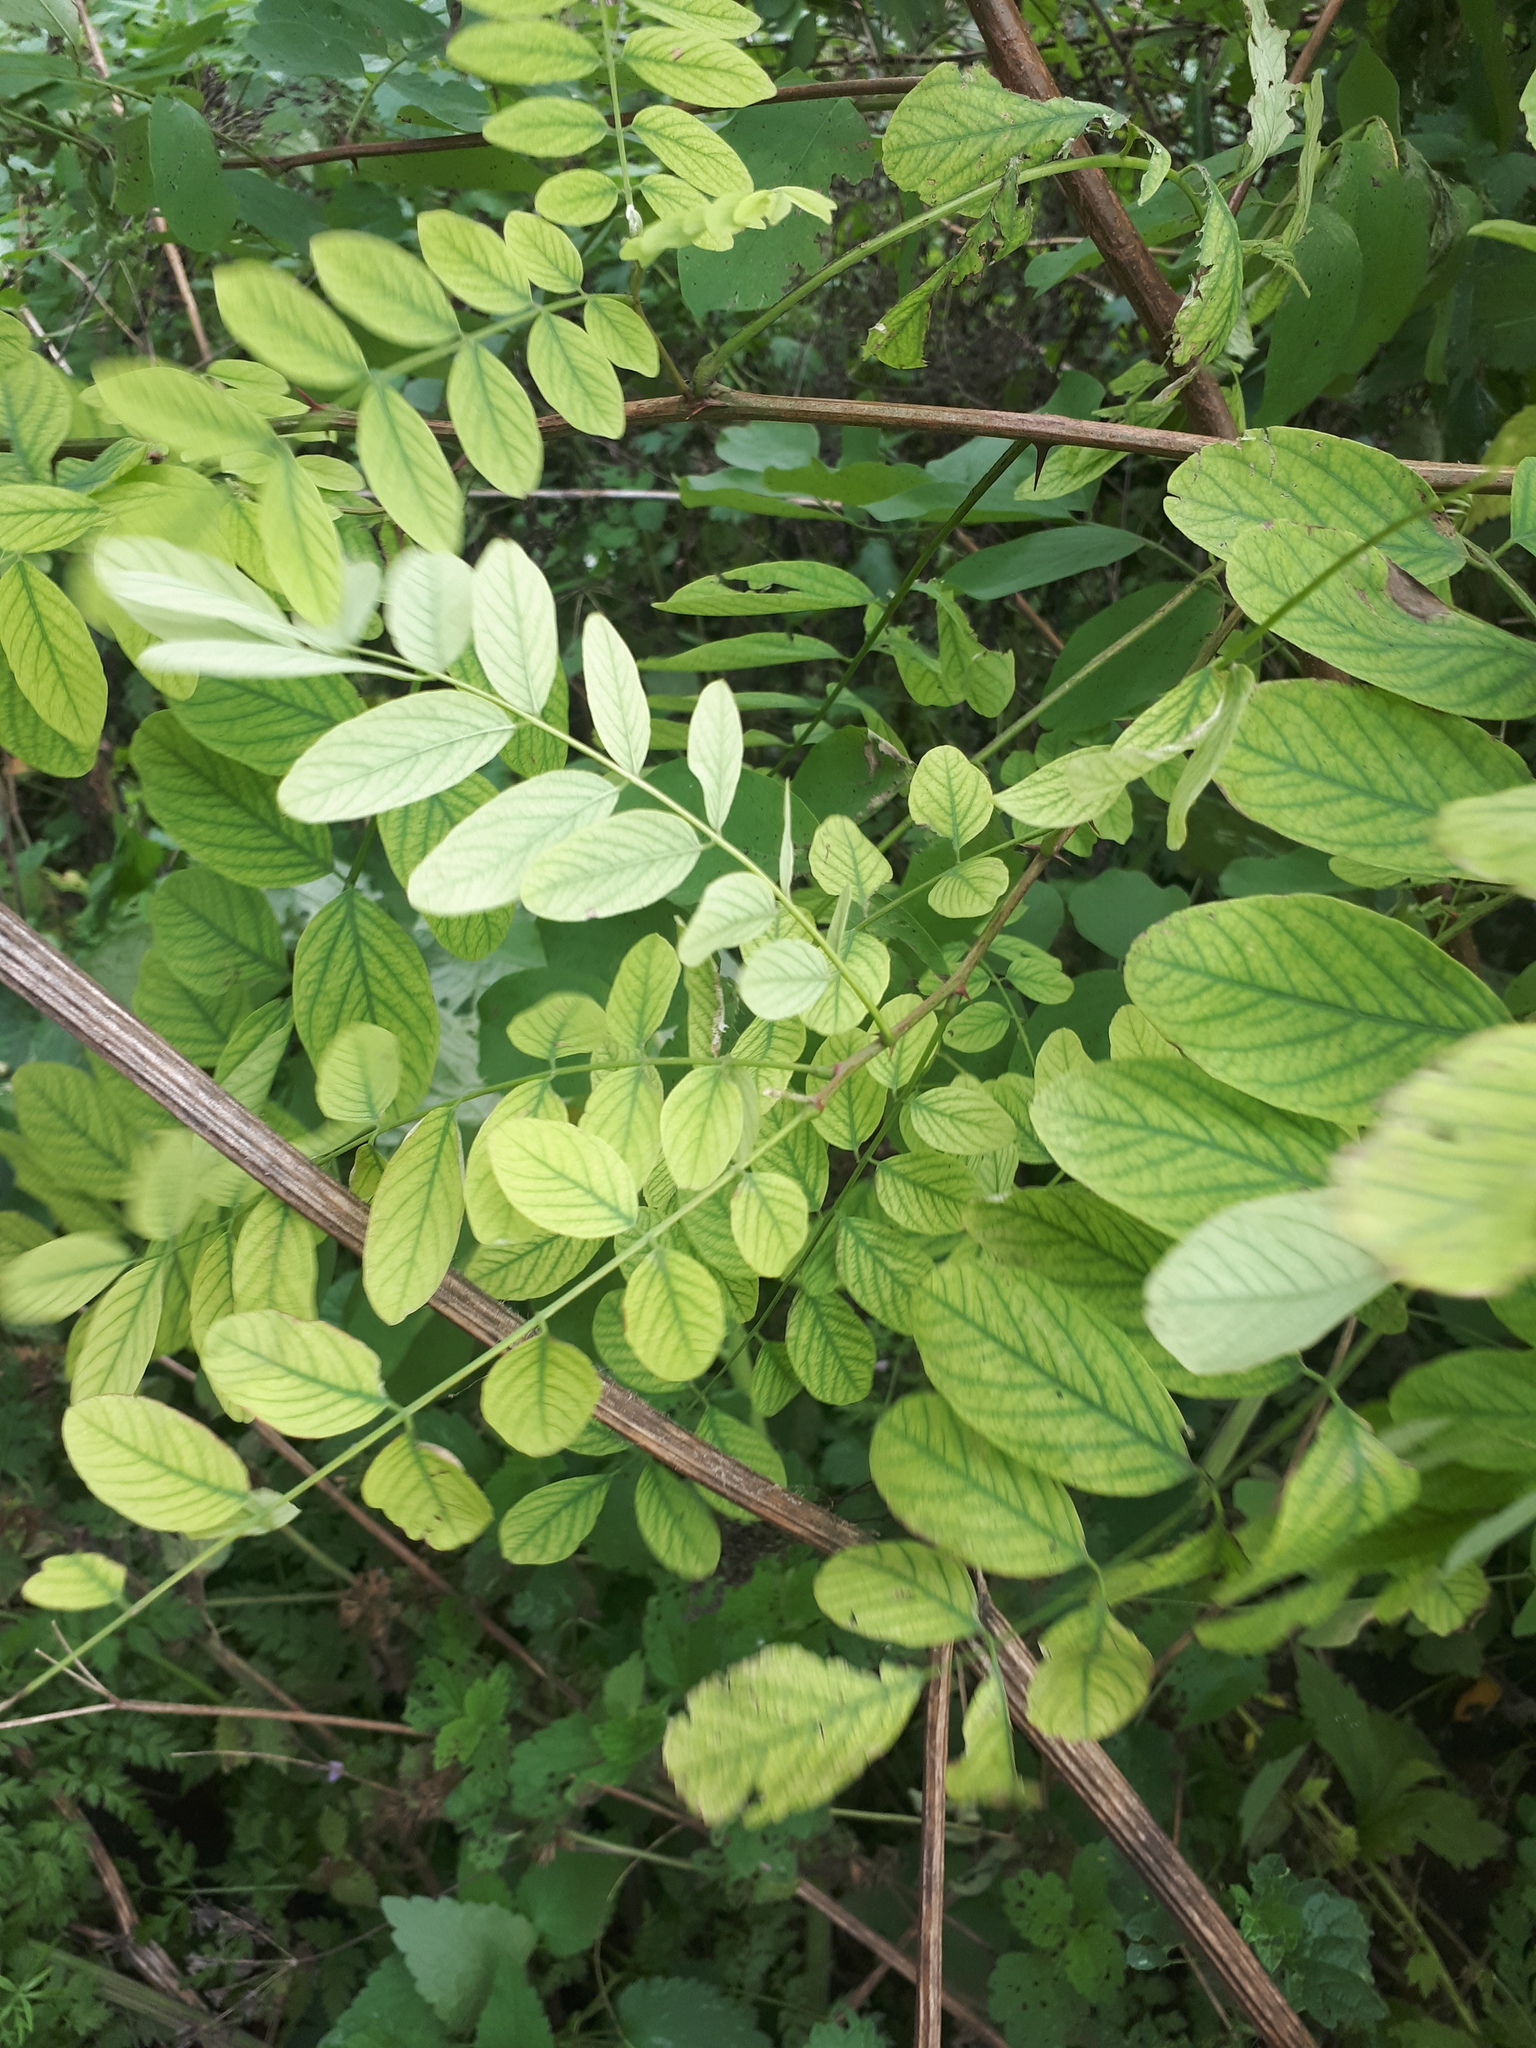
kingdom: Plantae
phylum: Tracheophyta
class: Magnoliopsida
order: Fabales
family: Fabaceae
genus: Robinia
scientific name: Robinia pseudoacacia
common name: Black locust
